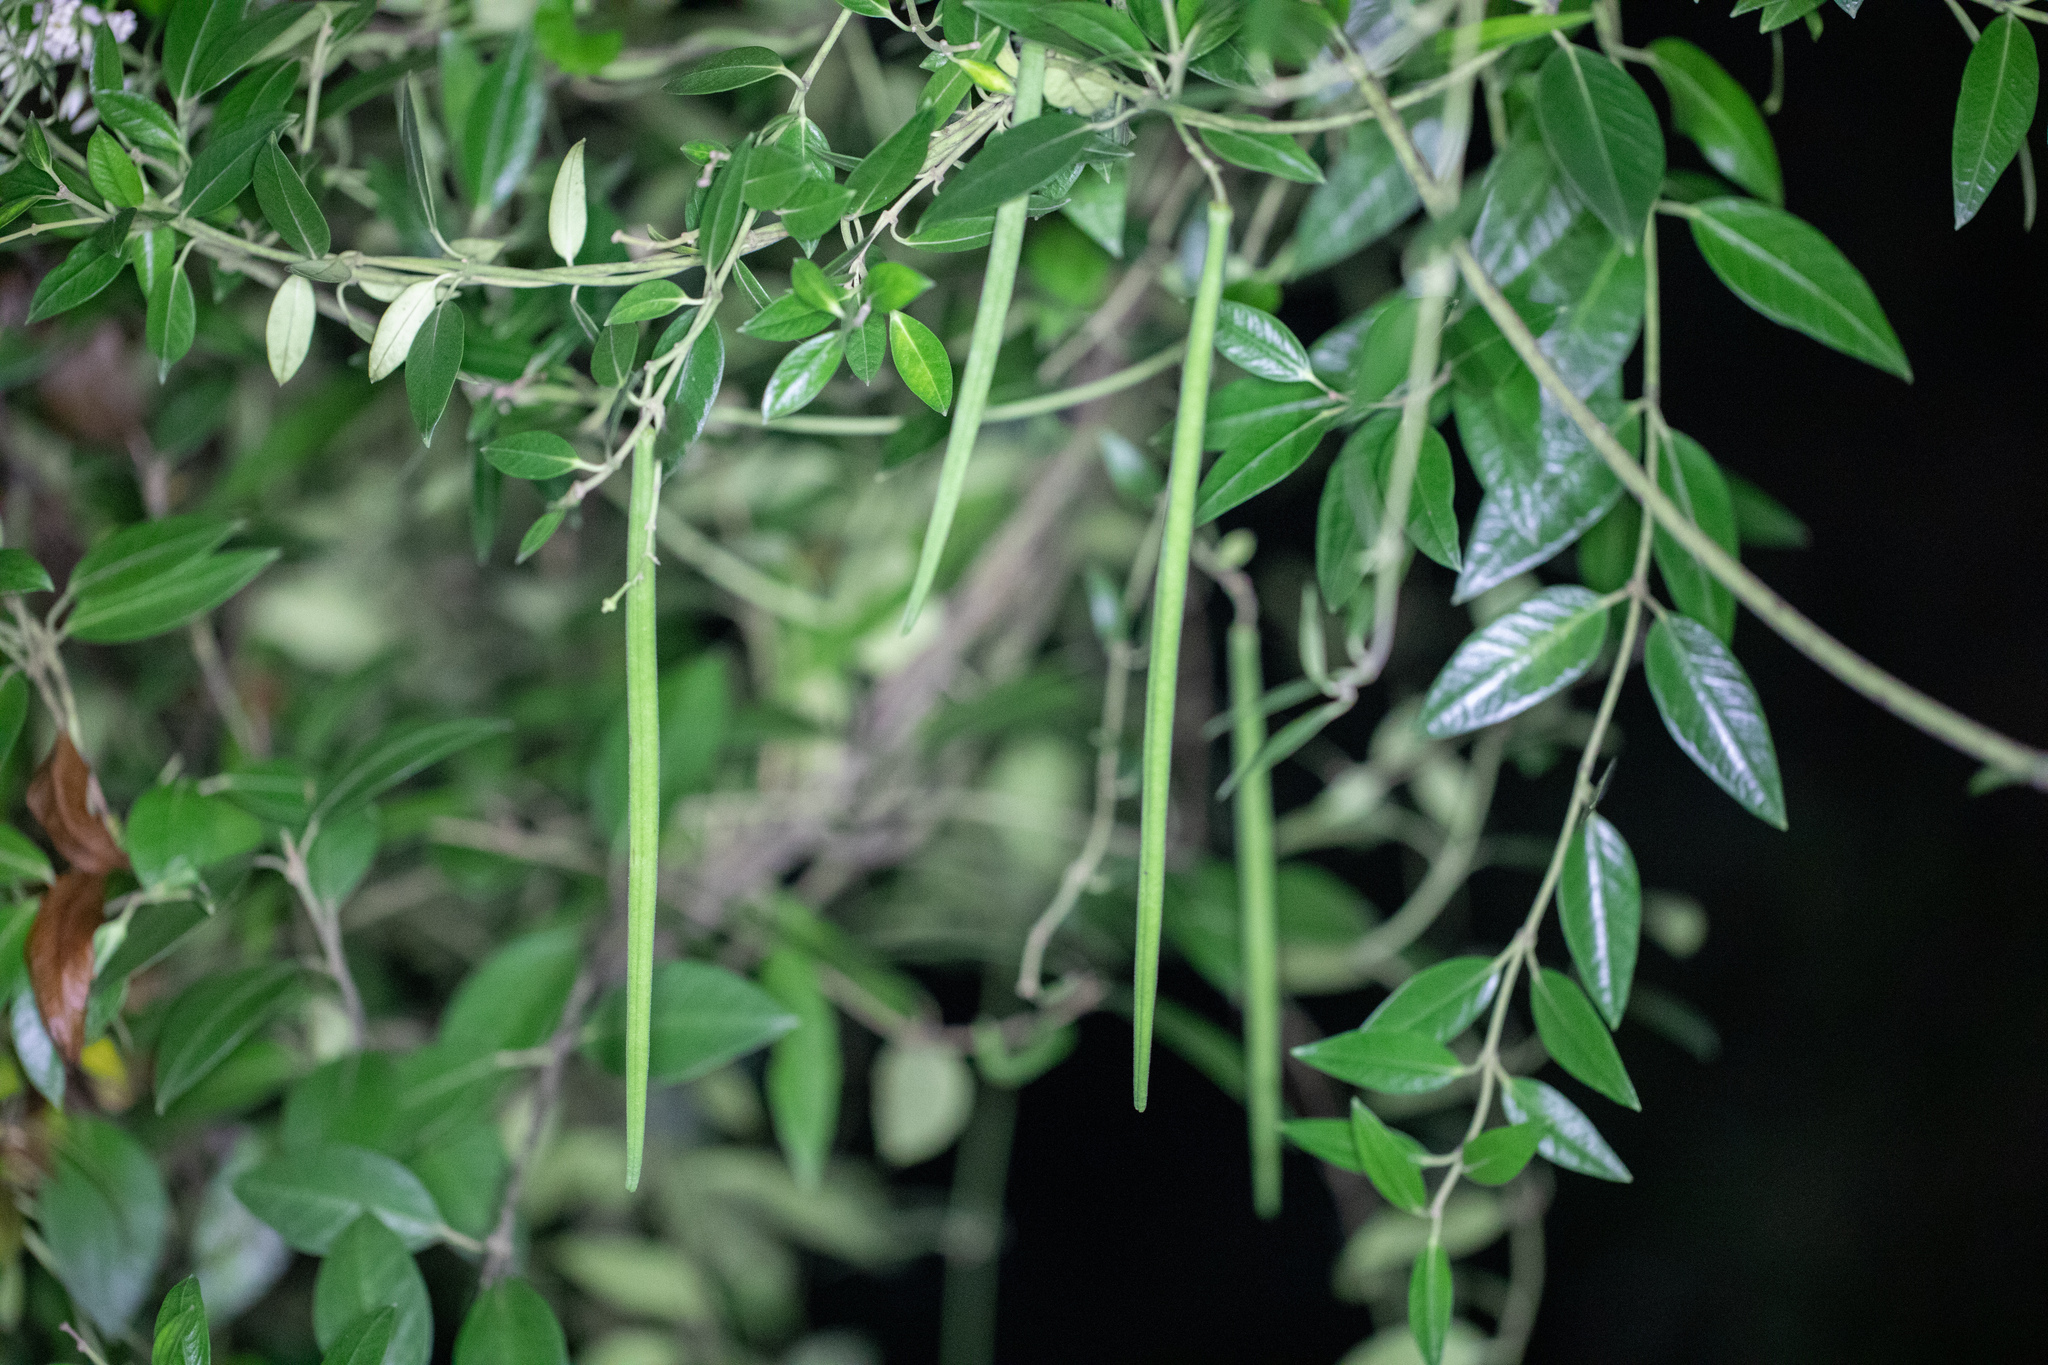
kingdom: Plantae
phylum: Tracheophyta
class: Magnoliopsida
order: Gentianales
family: Apocynaceae
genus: Parsonsia
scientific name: Parsonsia heterophylla
